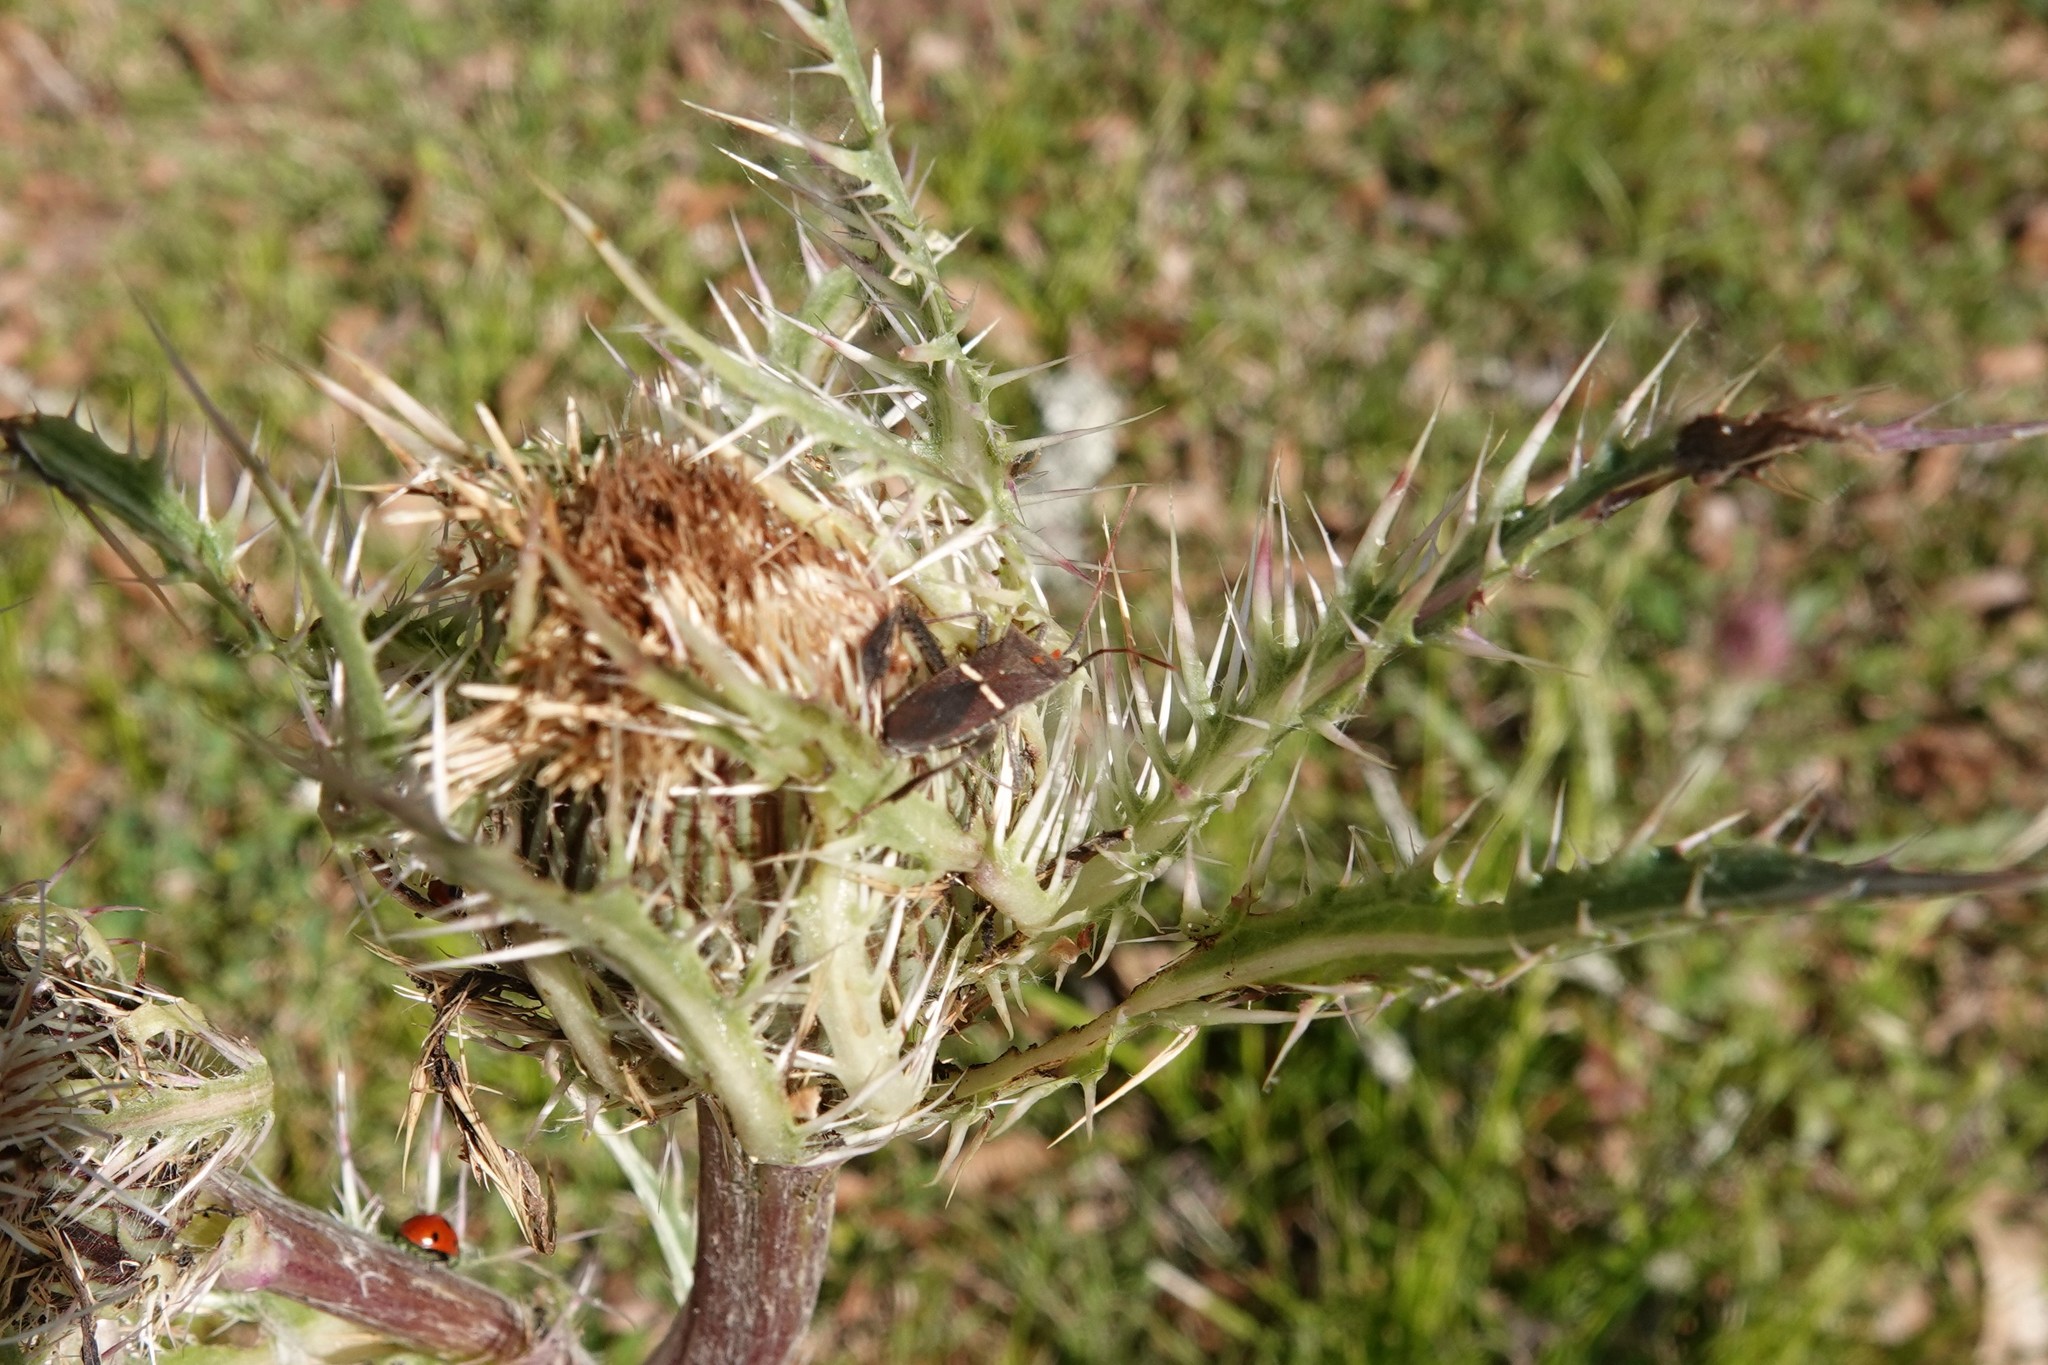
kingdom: Animalia
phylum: Arthropoda
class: Insecta
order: Hemiptera
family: Coreidae
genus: Leptoglossus
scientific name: Leptoglossus phyllopus
